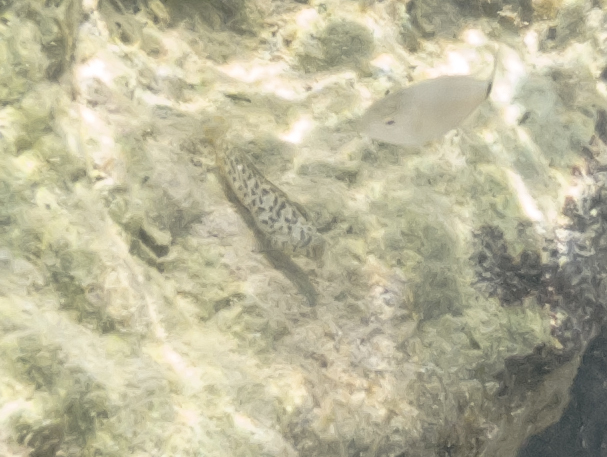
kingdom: Animalia
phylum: Chordata
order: Perciformes
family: Blenniidae
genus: Parablennius
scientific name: Parablennius sanguinolentus
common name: Black sea blenny
